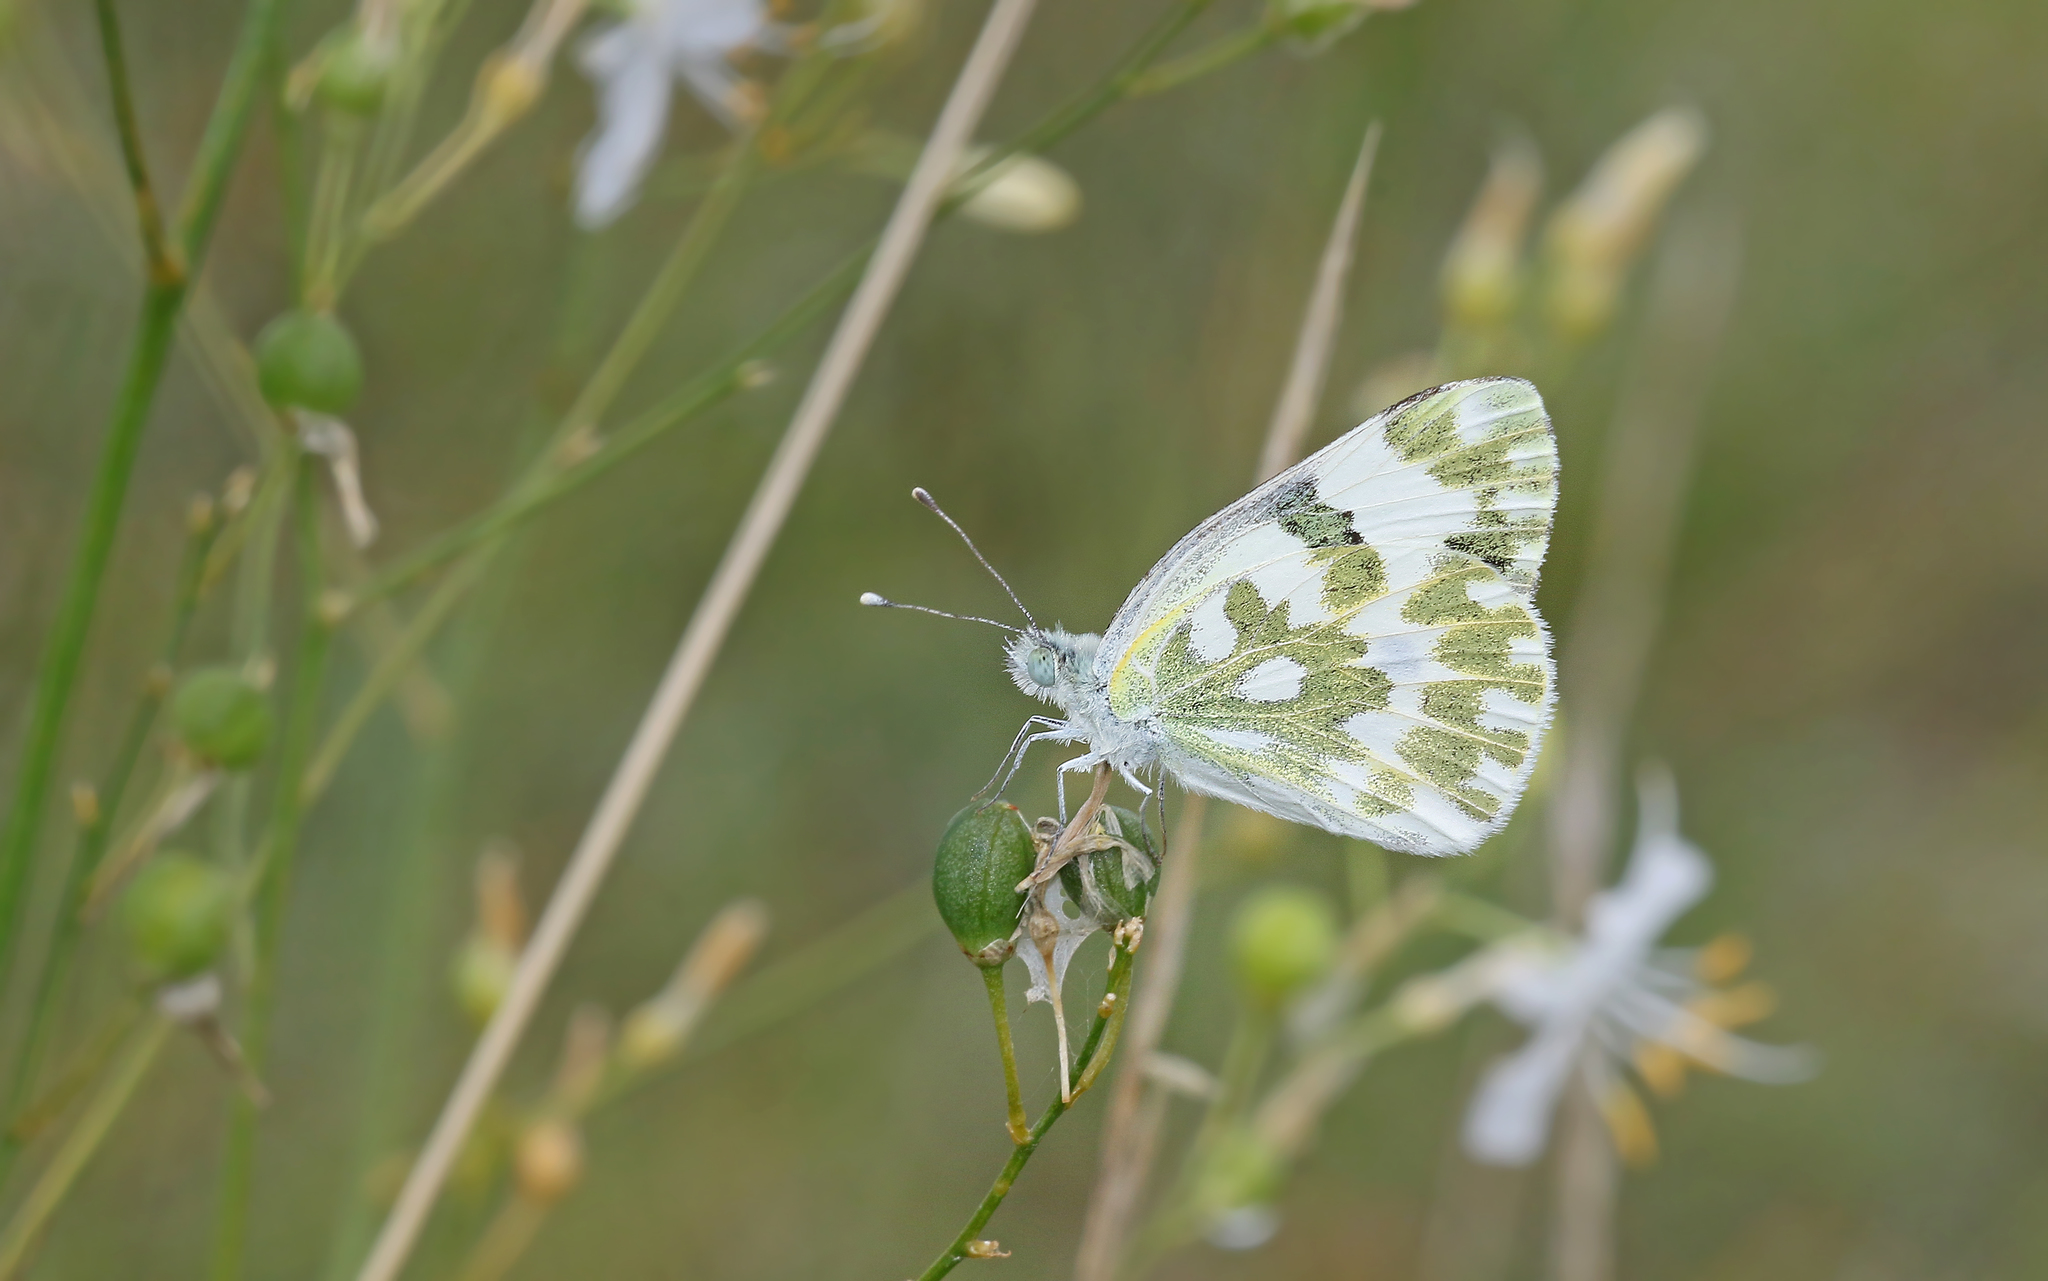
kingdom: Animalia
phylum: Arthropoda
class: Insecta
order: Lepidoptera
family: Pieridae
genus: Pontia
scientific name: Pontia edusa
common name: Eastern bath white
